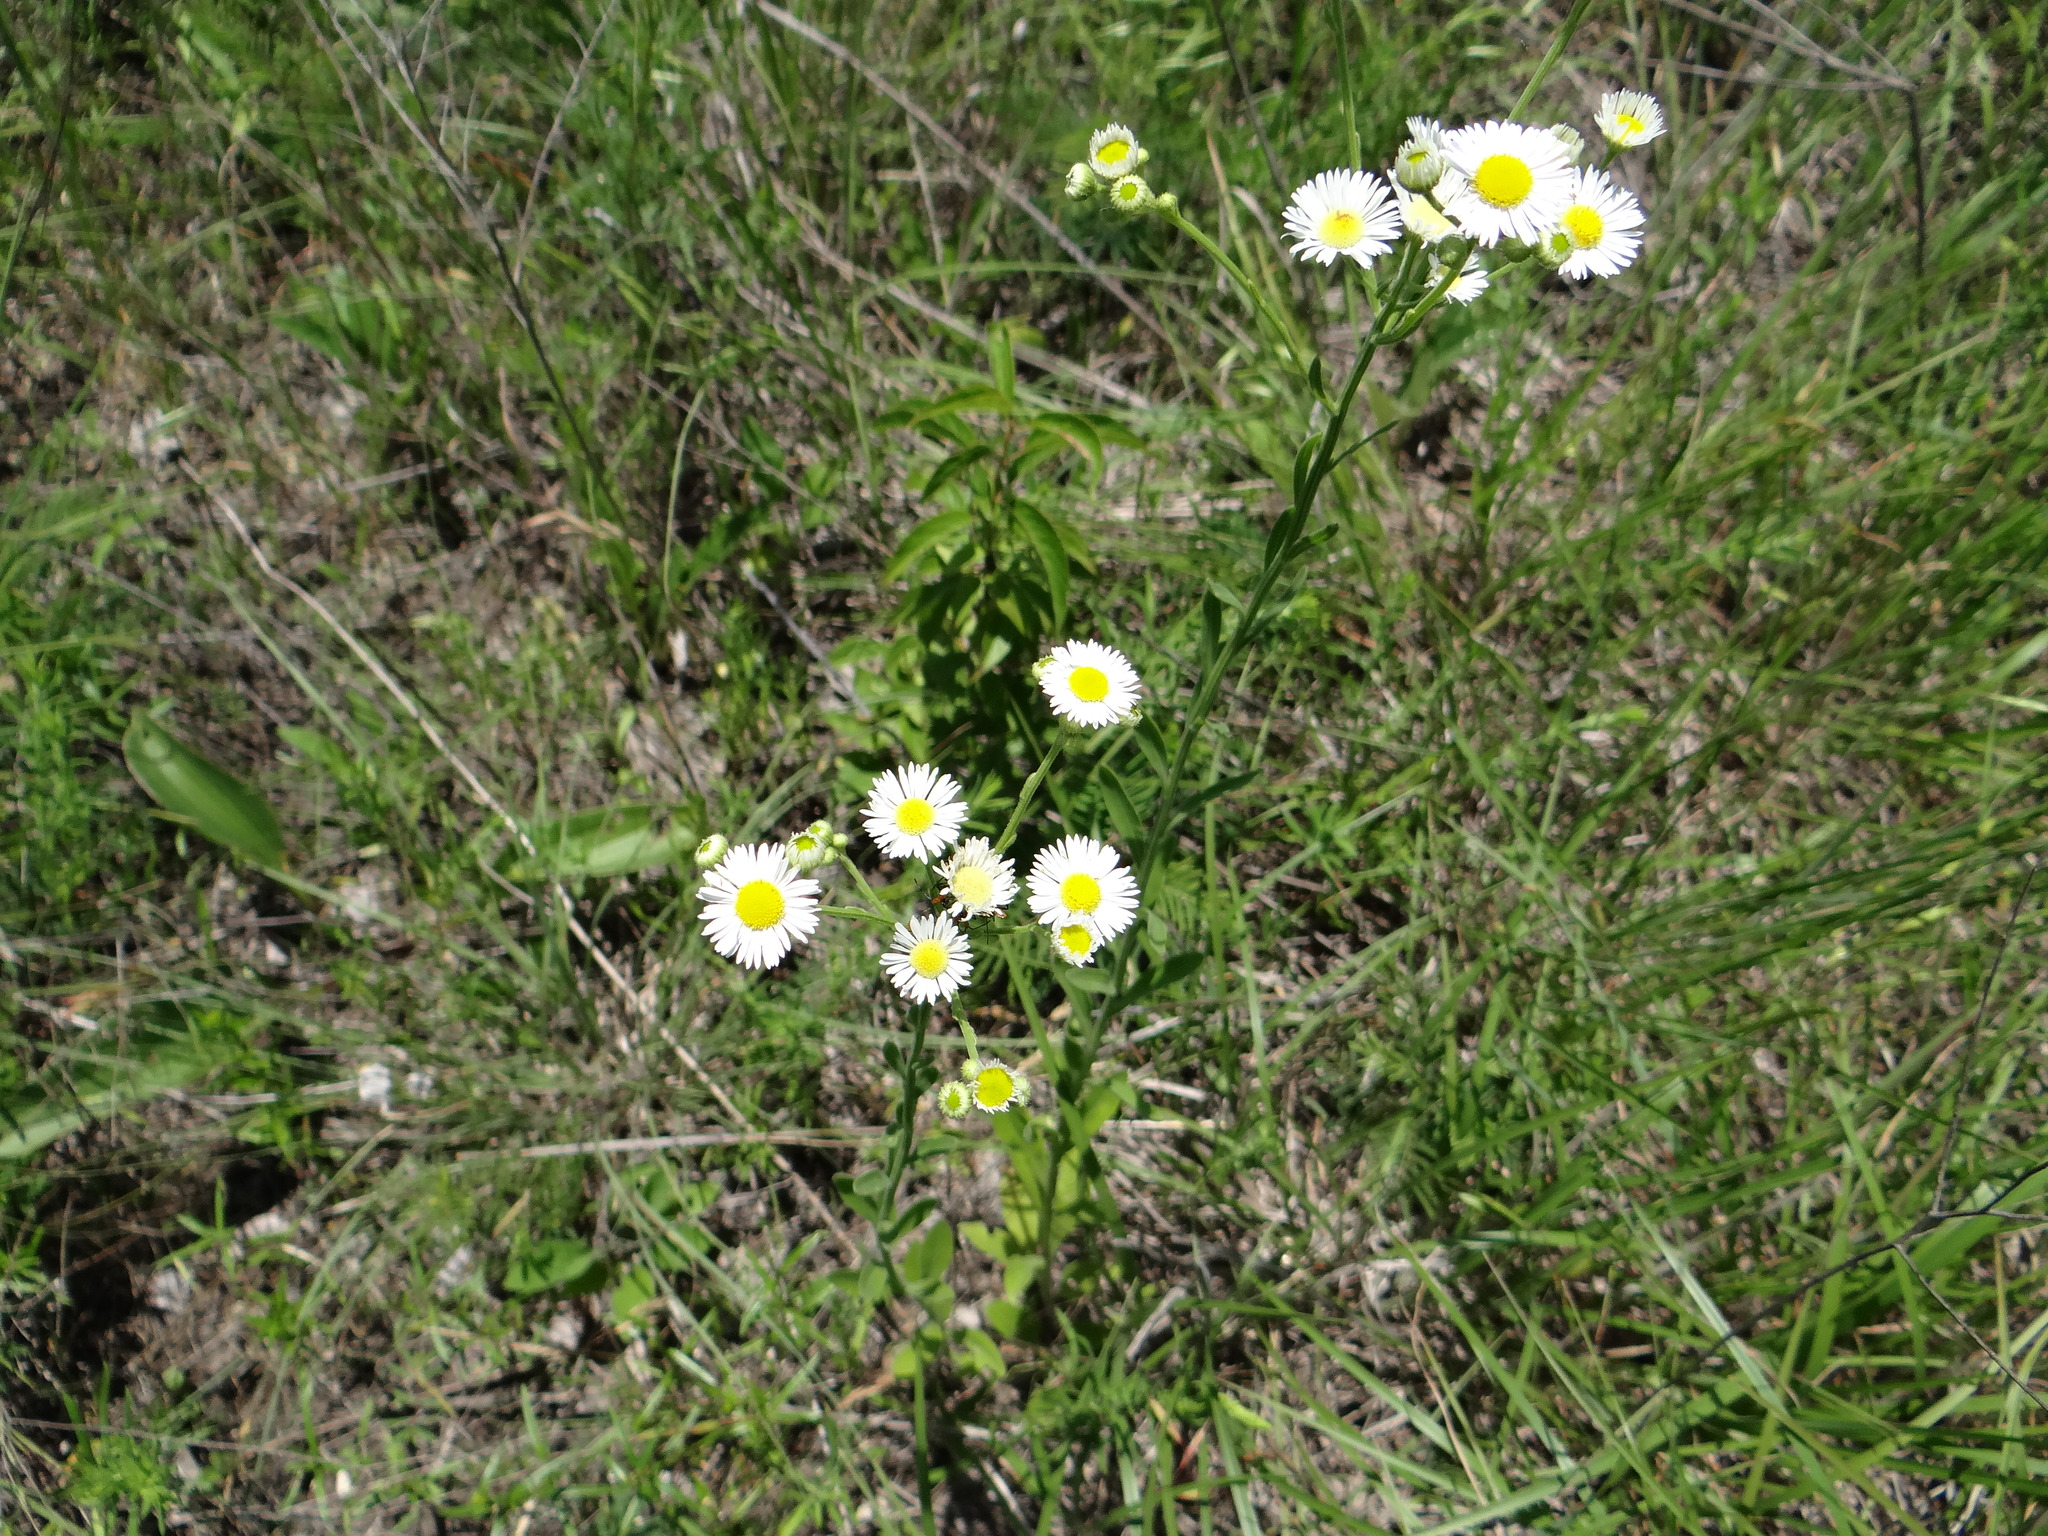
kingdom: Plantae
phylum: Tracheophyta
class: Magnoliopsida
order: Asterales
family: Asteraceae
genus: Erigeron
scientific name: Erigeron strigosus
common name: Common eastern fleabane
